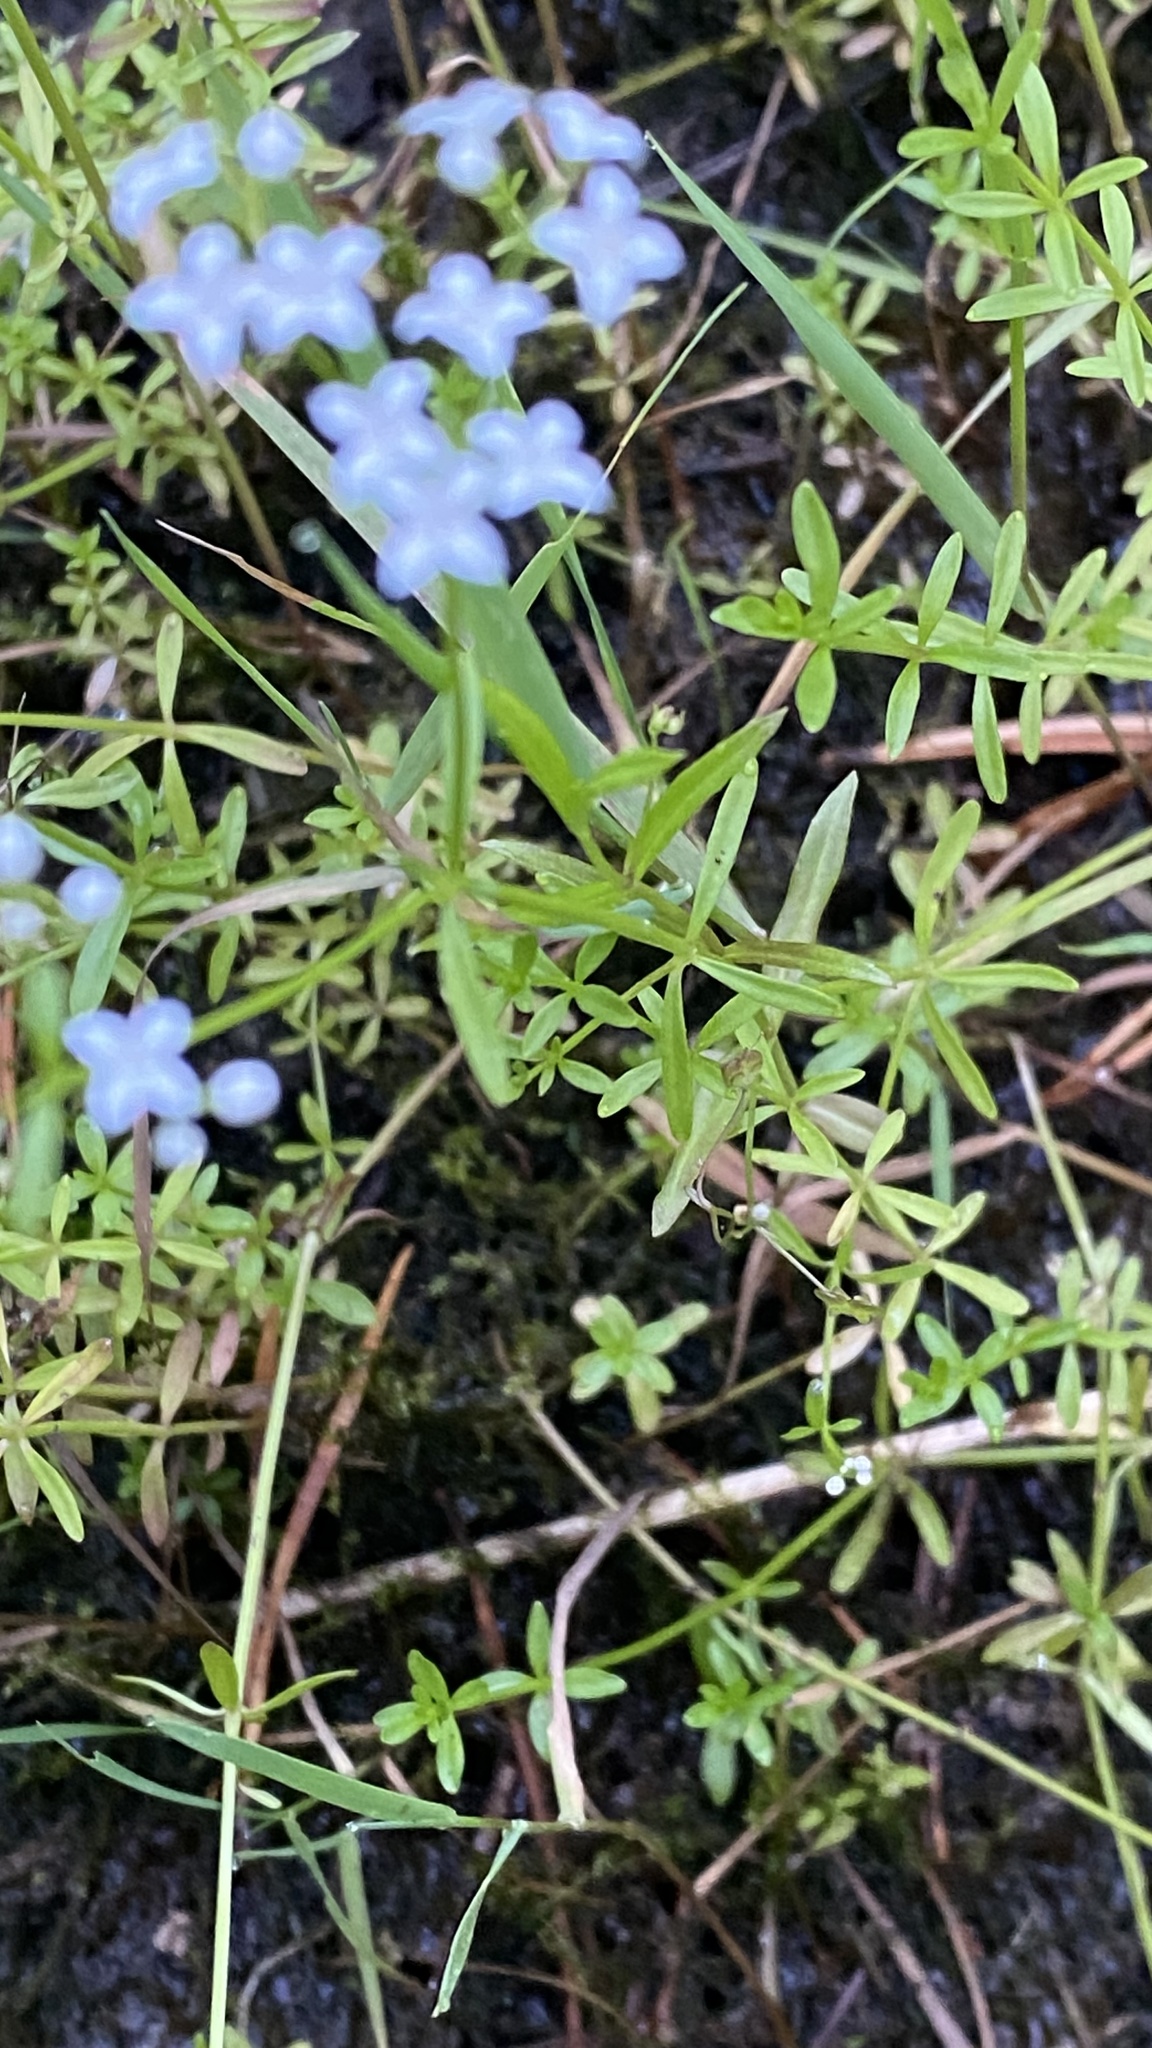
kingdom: Plantae
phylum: Tracheophyta
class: Magnoliopsida
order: Gentianales
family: Rubiaceae
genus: Galium
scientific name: Galium palustre
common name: Common marsh-bedstraw
